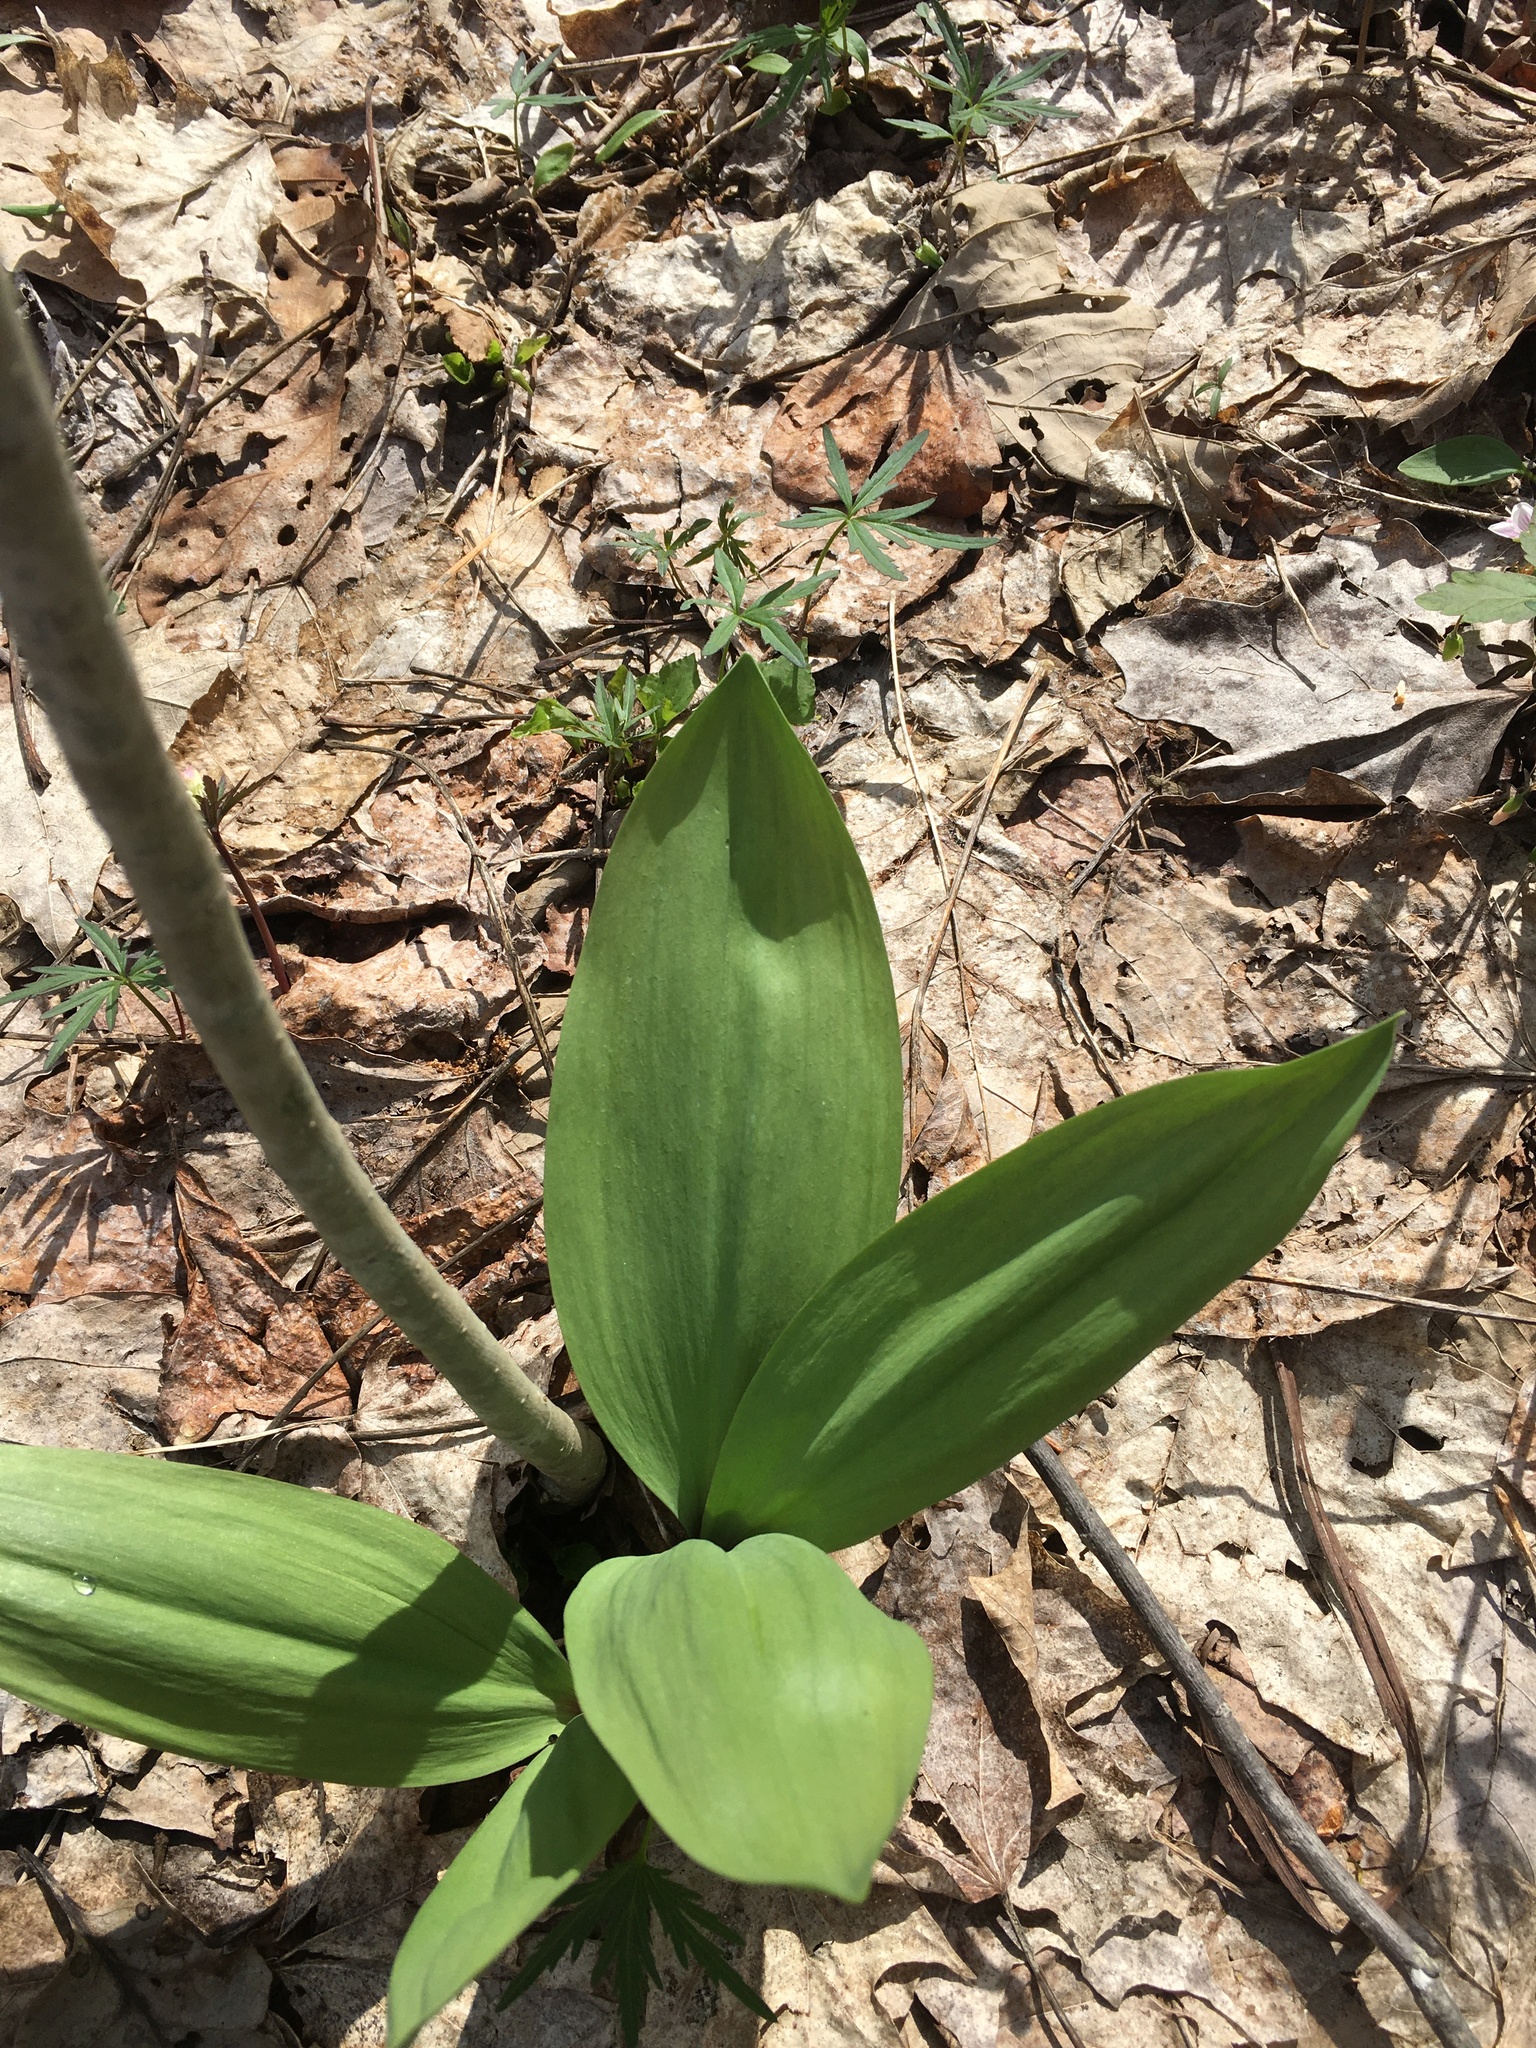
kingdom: Plantae
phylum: Tracheophyta
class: Liliopsida
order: Asparagales
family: Amaryllidaceae
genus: Allium
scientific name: Allium tricoccum
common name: Ramp
